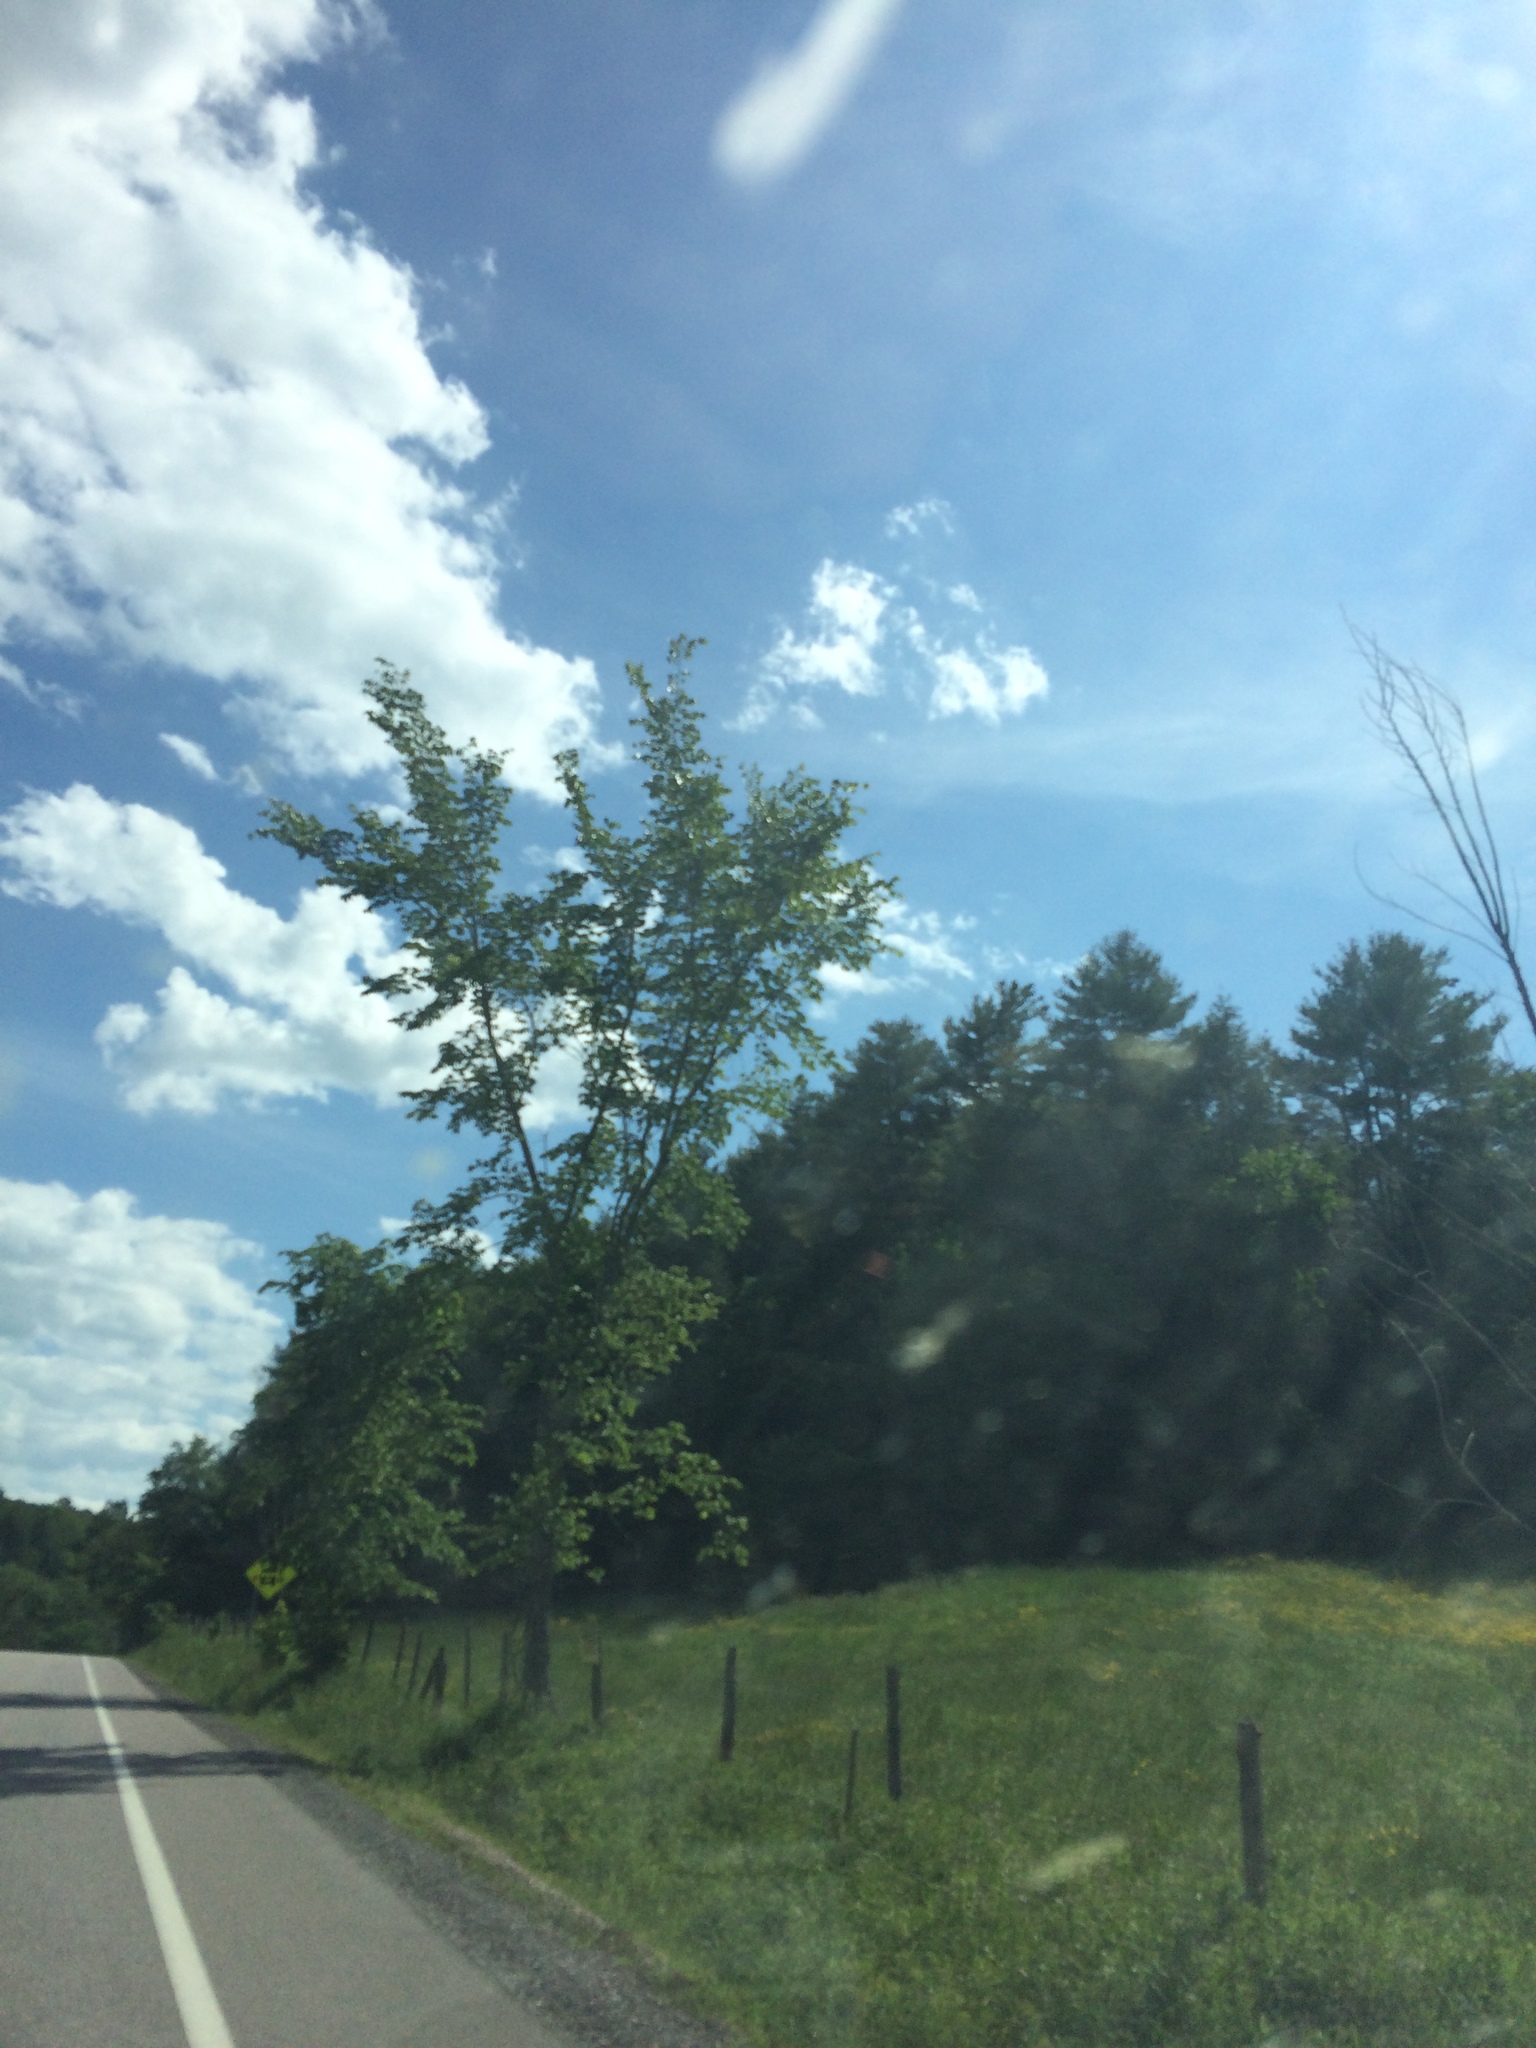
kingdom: Plantae
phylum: Tracheophyta
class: Magnoliopsida
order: Rosales
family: Ulmaceae
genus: Ulmus
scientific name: Ulmus americana
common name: American elm
